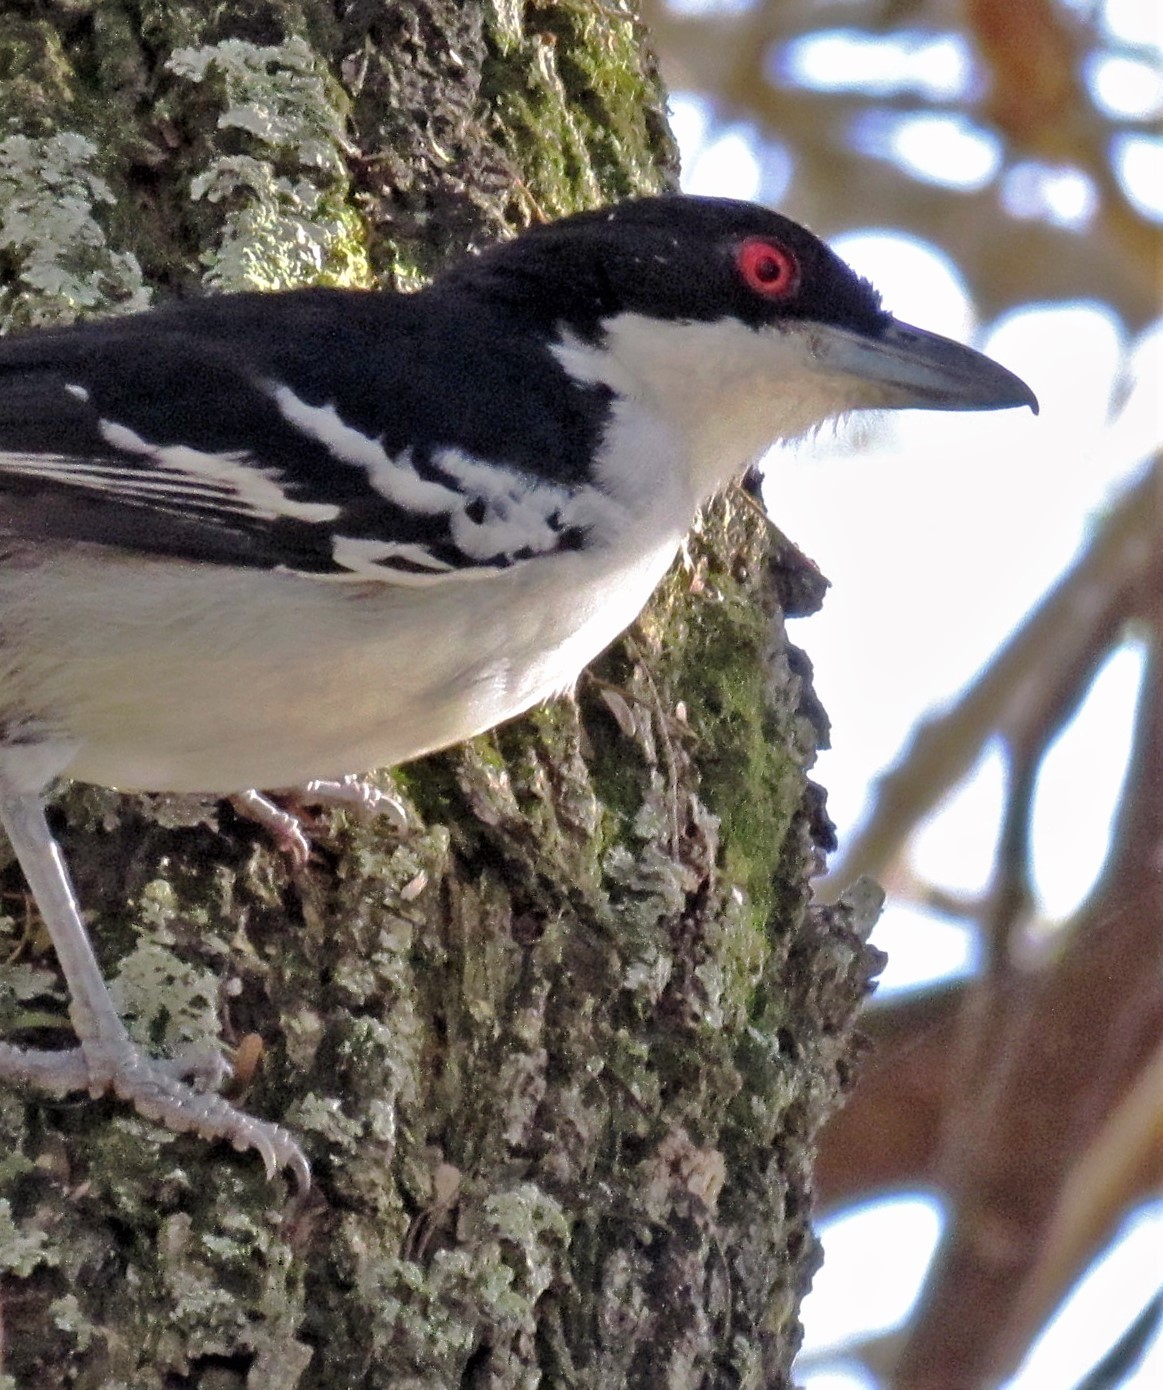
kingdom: Animalia
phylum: Chordata
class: Aves
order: Passeriformes
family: Thamnophilidae
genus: Taraba
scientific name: Taraba major
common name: Great antshrike
